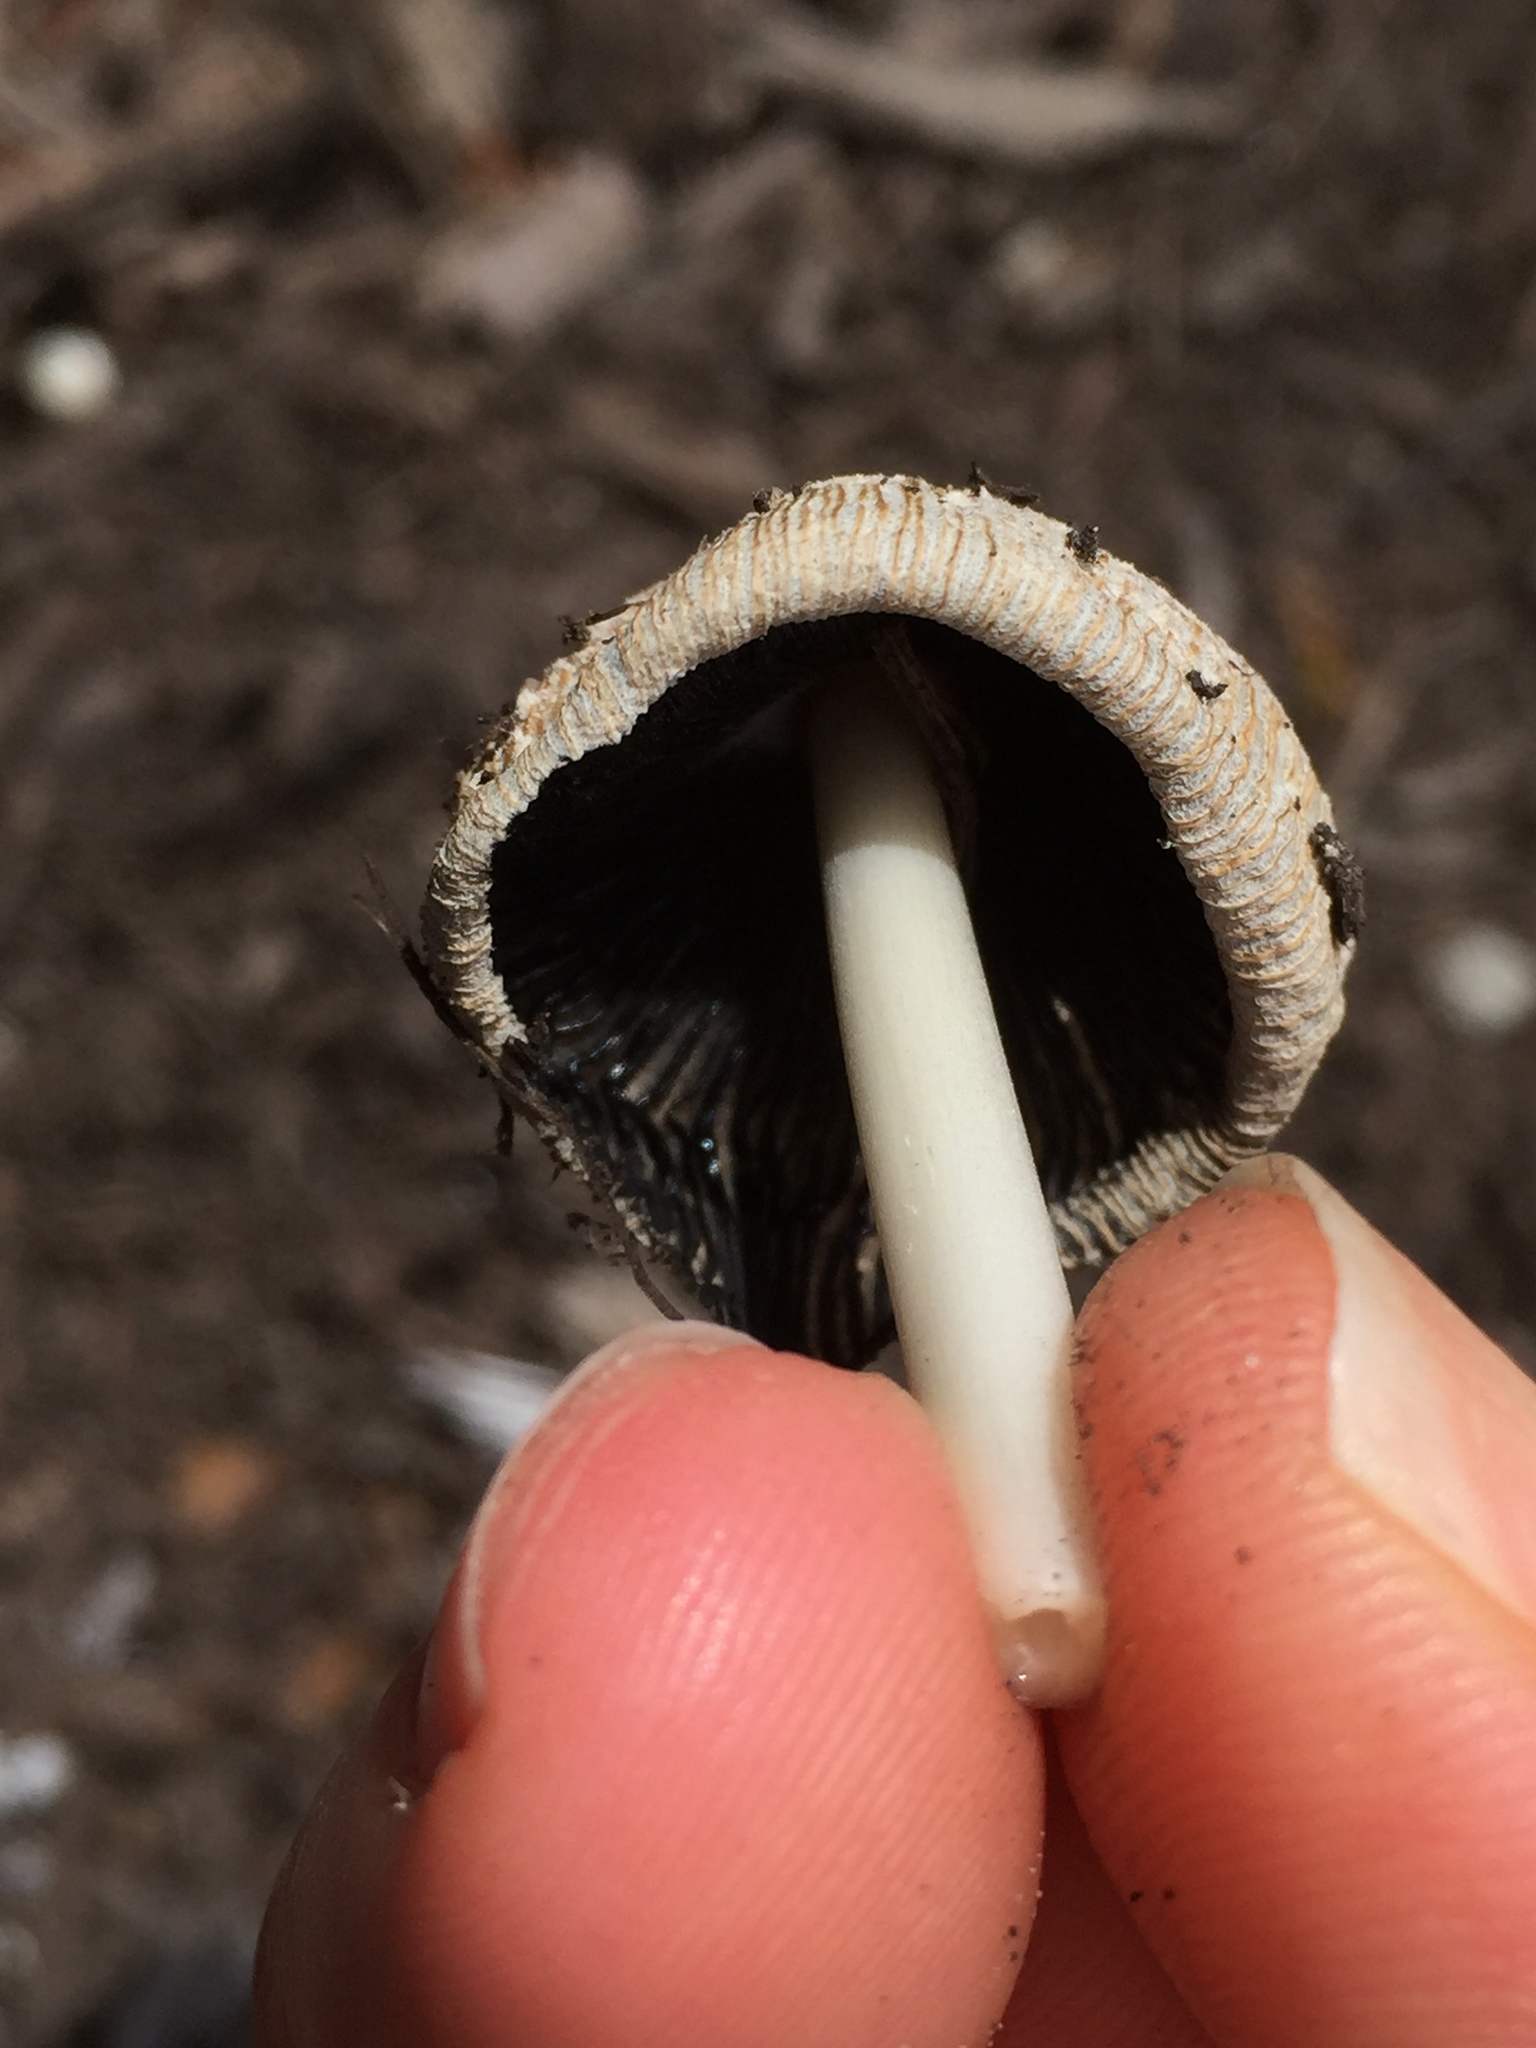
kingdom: Fungi
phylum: Basidiomycota
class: Agaricomycetes
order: Agaricales
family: Psathyrellaceae
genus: Coprinellus
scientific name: Coprinellus flocculosus
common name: Flocculose inkcap
